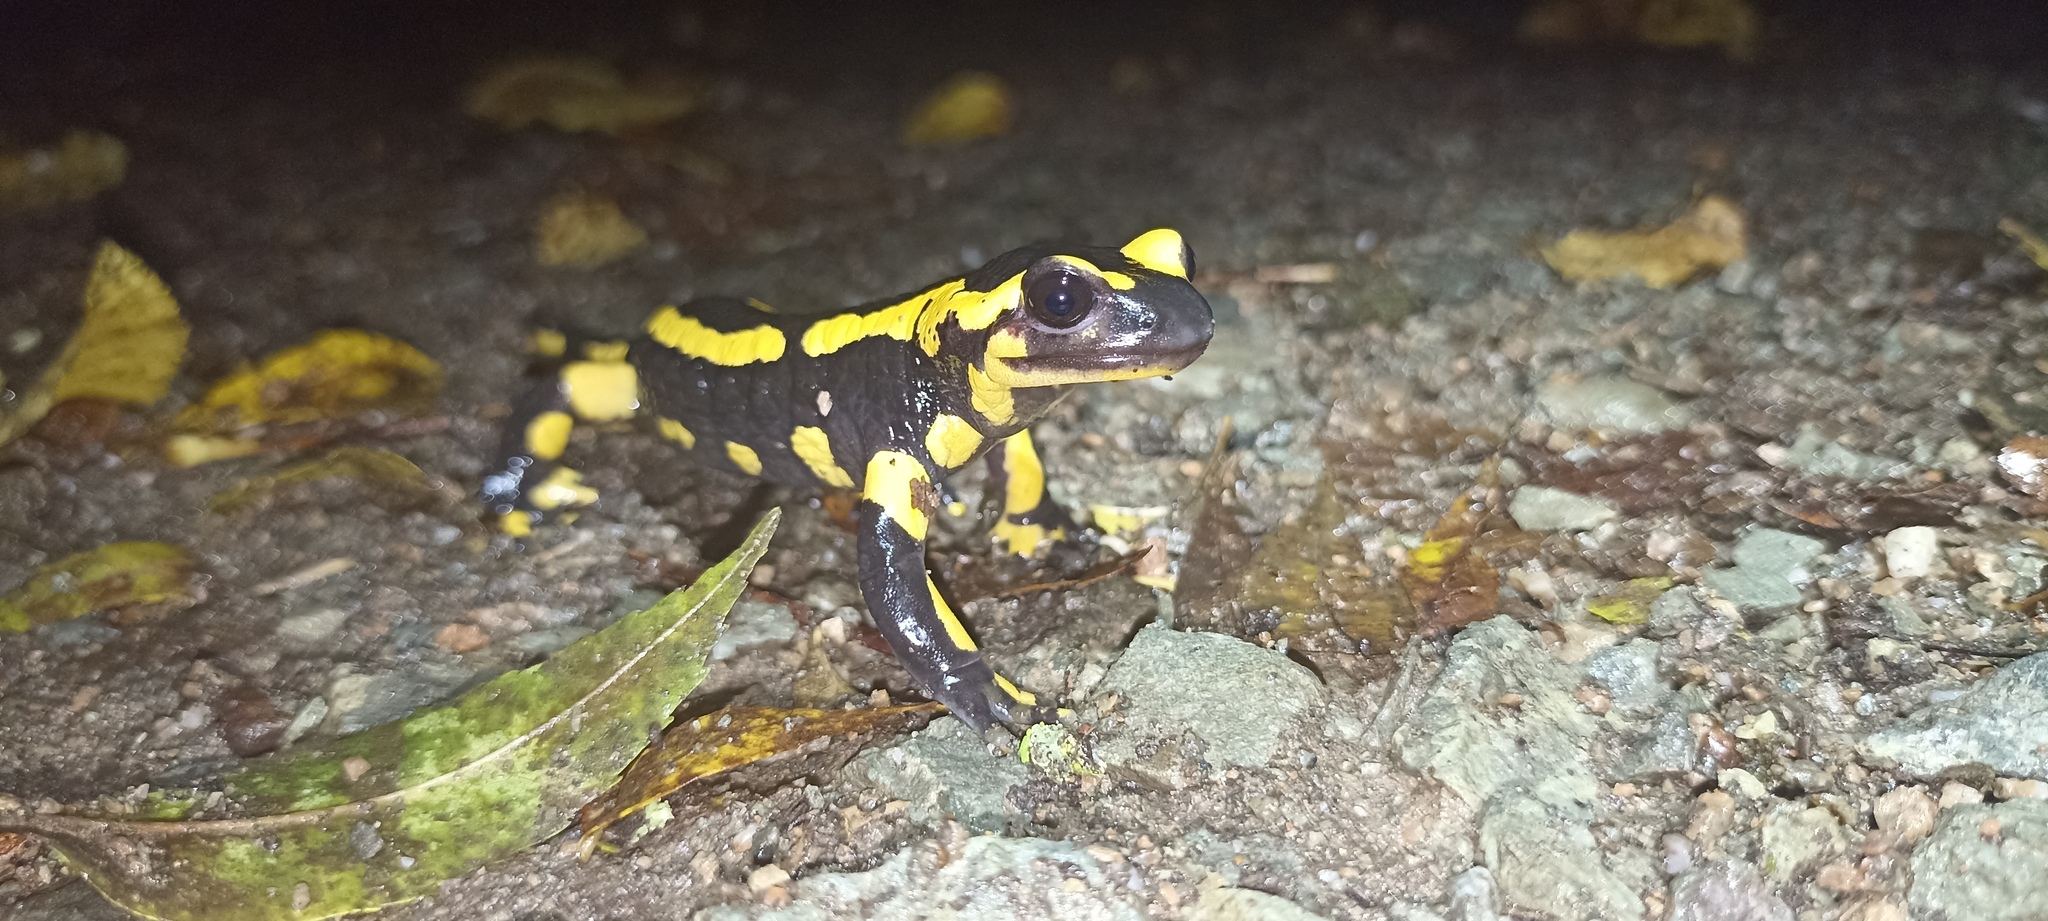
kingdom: Animalia
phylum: Chordata
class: Amphibia
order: Caudata
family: Salamandridae
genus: Salamandra
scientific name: Salamandra salamandra
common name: Fire salamander
